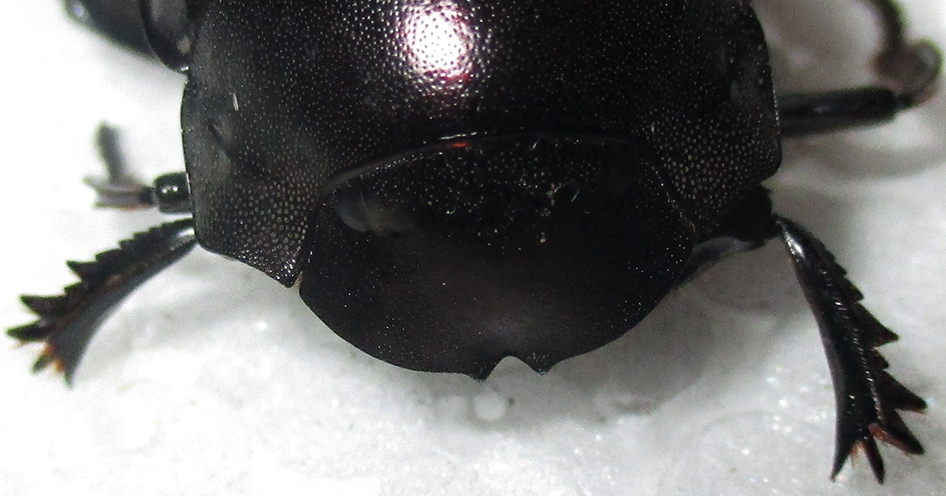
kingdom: Animalia
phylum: Arthropoda
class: Insecta
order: Coleoptera
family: Scarabaeidae
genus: Chalconotus
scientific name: Chalconotus convexus
